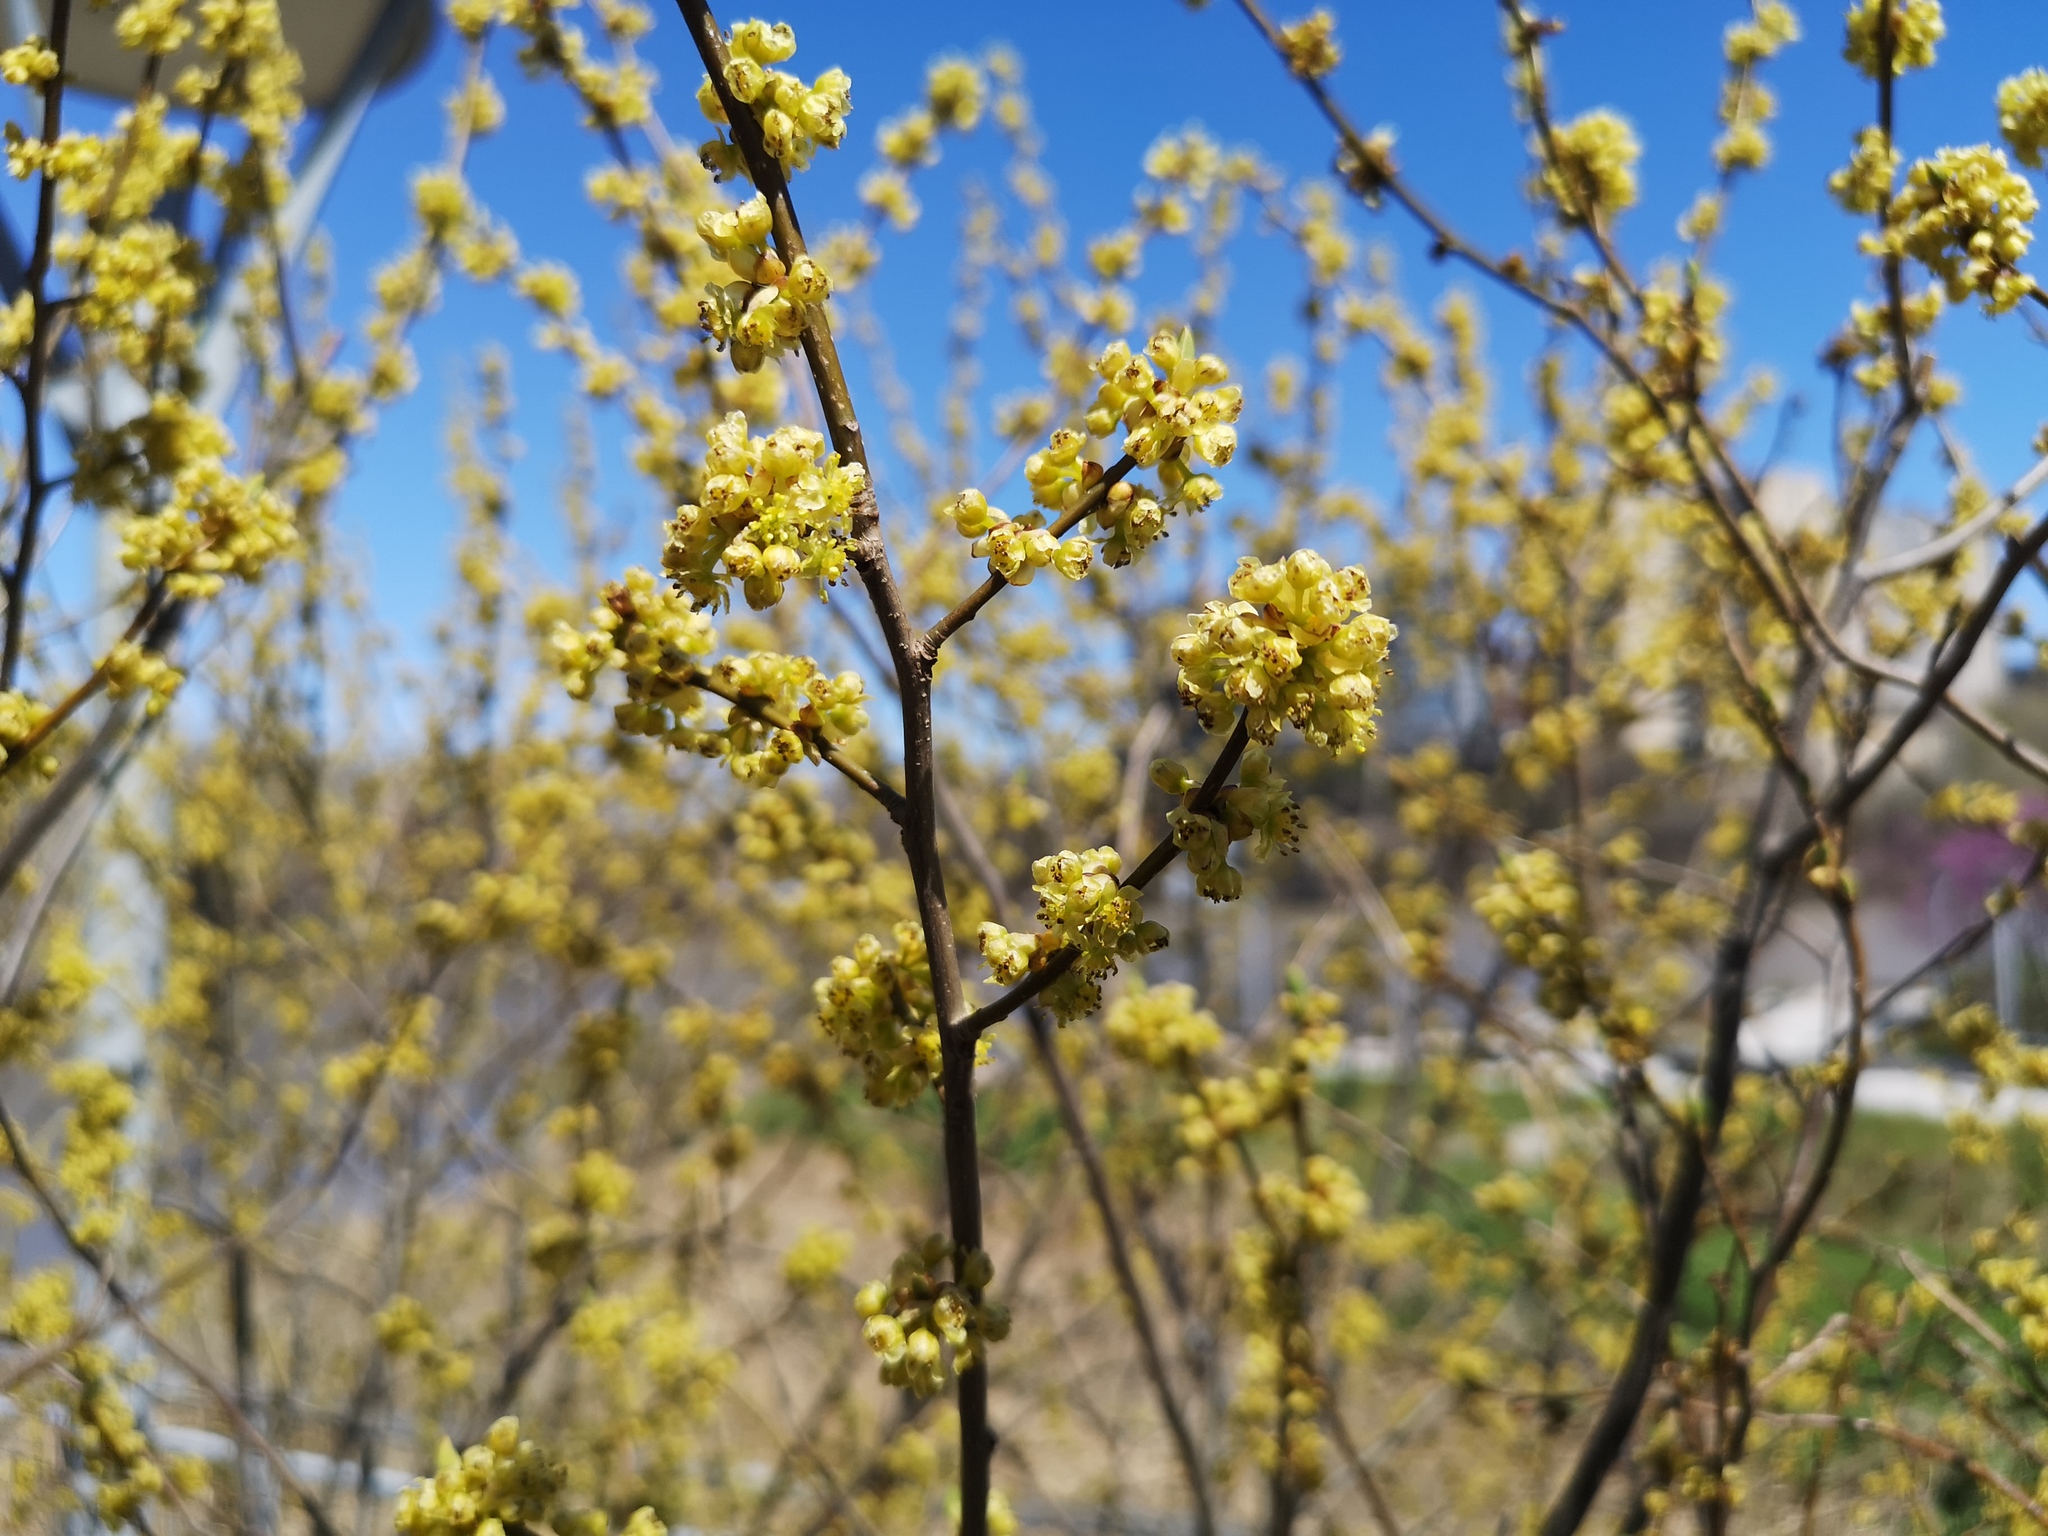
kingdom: Plantae
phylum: Tracheophyta
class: Magnoliopsida
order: Laurales
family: Lauraceae
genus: Lindera
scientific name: Lindera benzoin
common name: Spicebush
